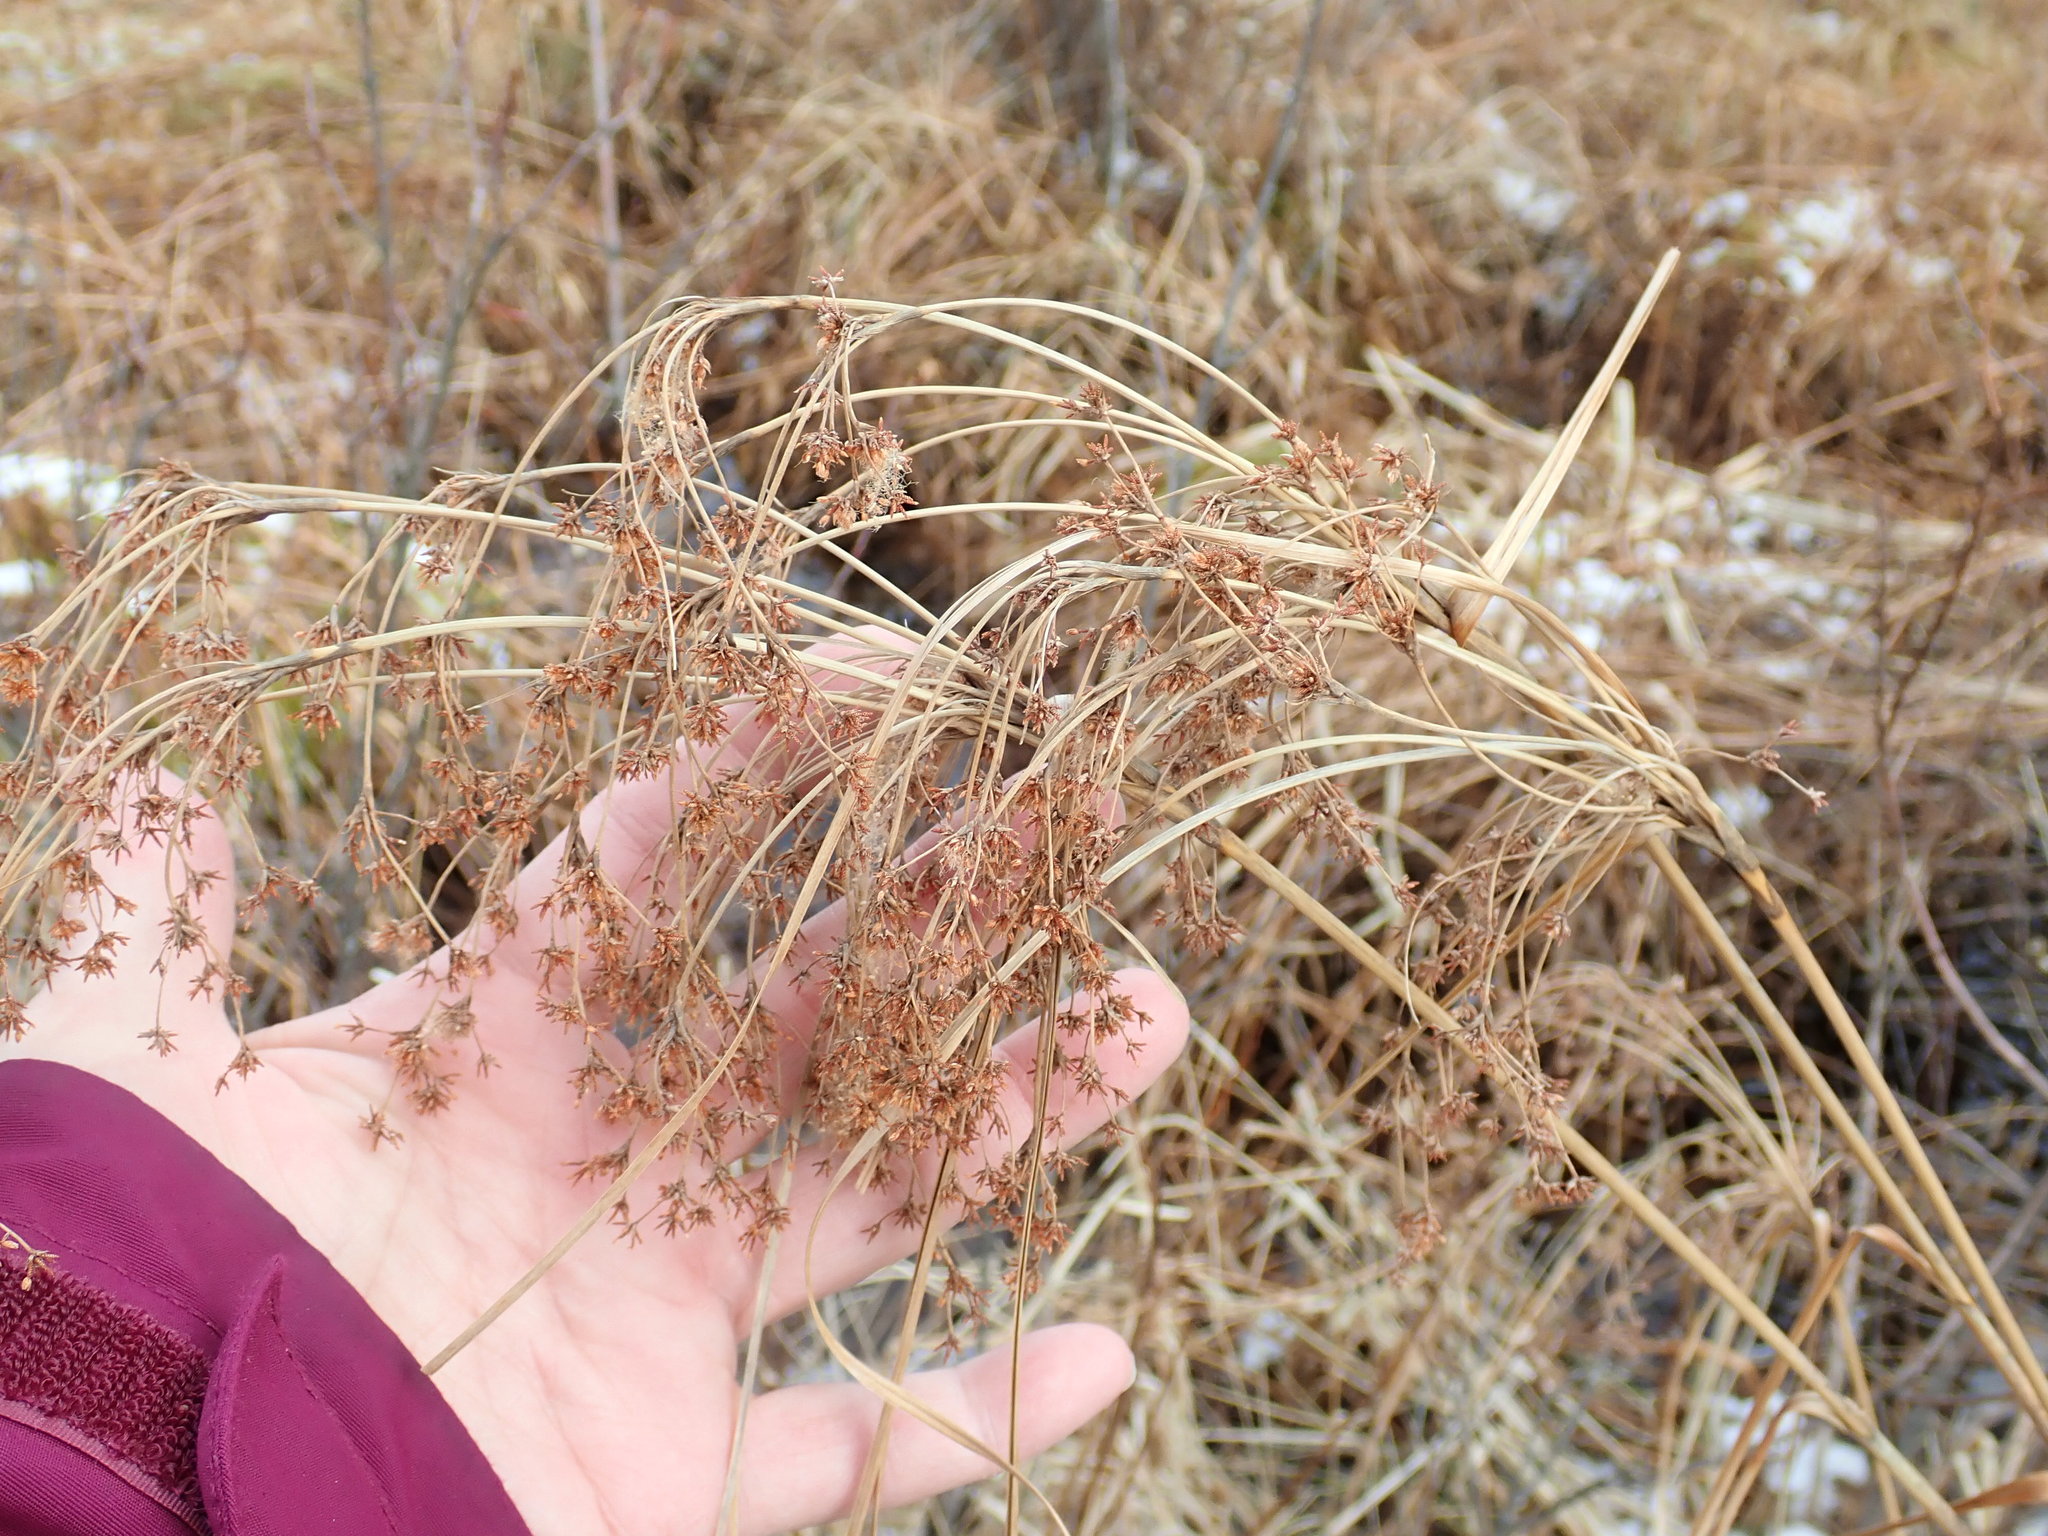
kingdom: Plantae
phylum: Tracheophyta
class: Liliopsida
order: Poales
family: Cyperaceae
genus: Scirpus
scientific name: Scirpus
